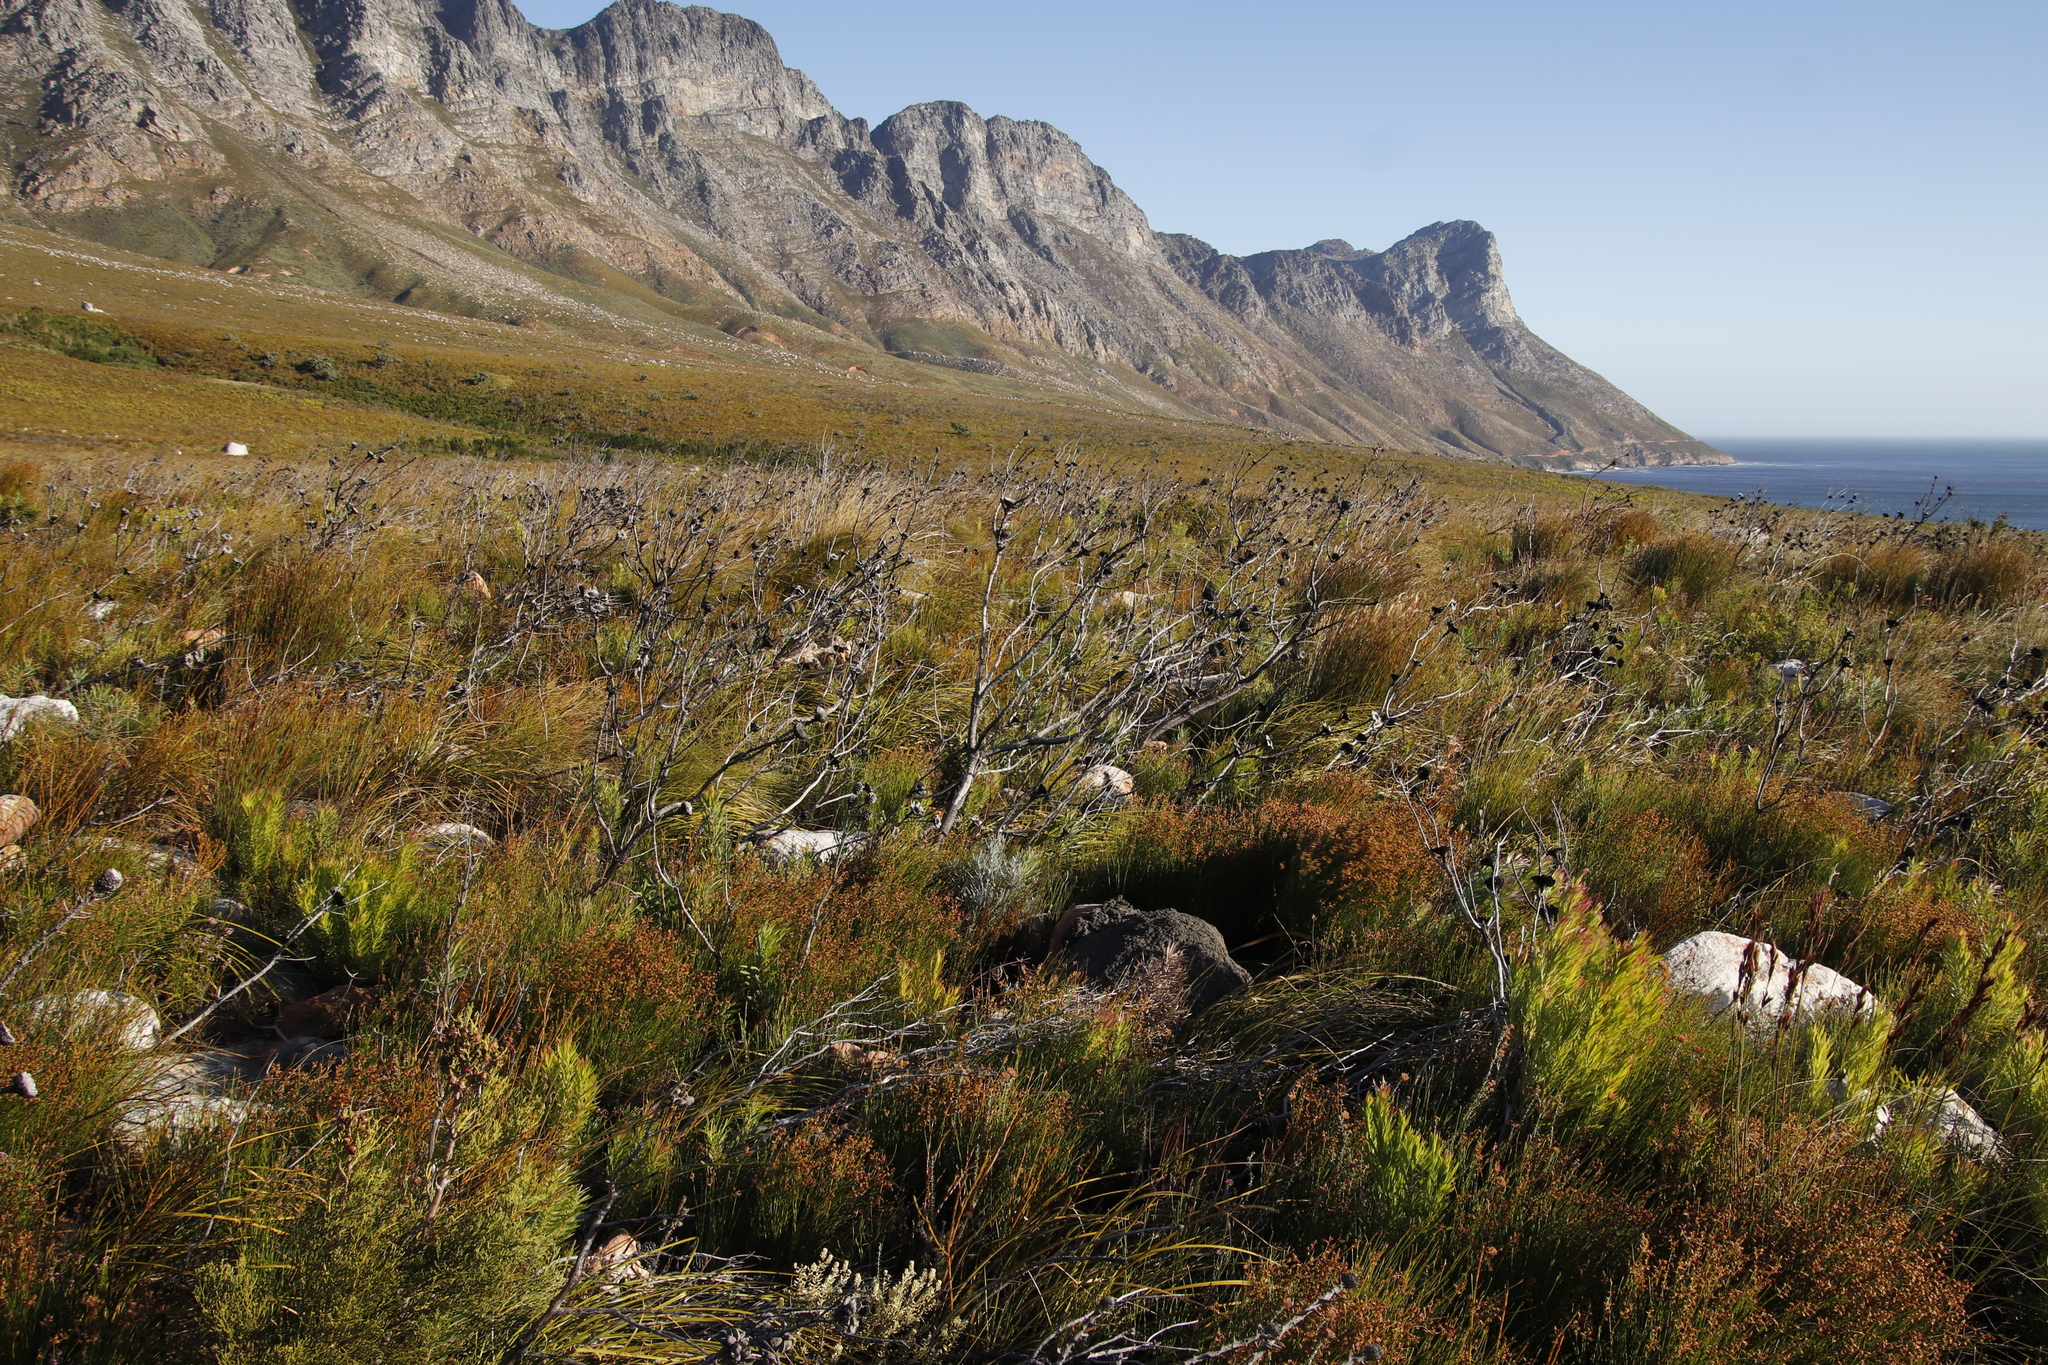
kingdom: Plantae
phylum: Tracheophyta
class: Magnoliopsida
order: Proteales
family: Proteaceae
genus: Protea
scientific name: Protea repens
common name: Sugarbush
